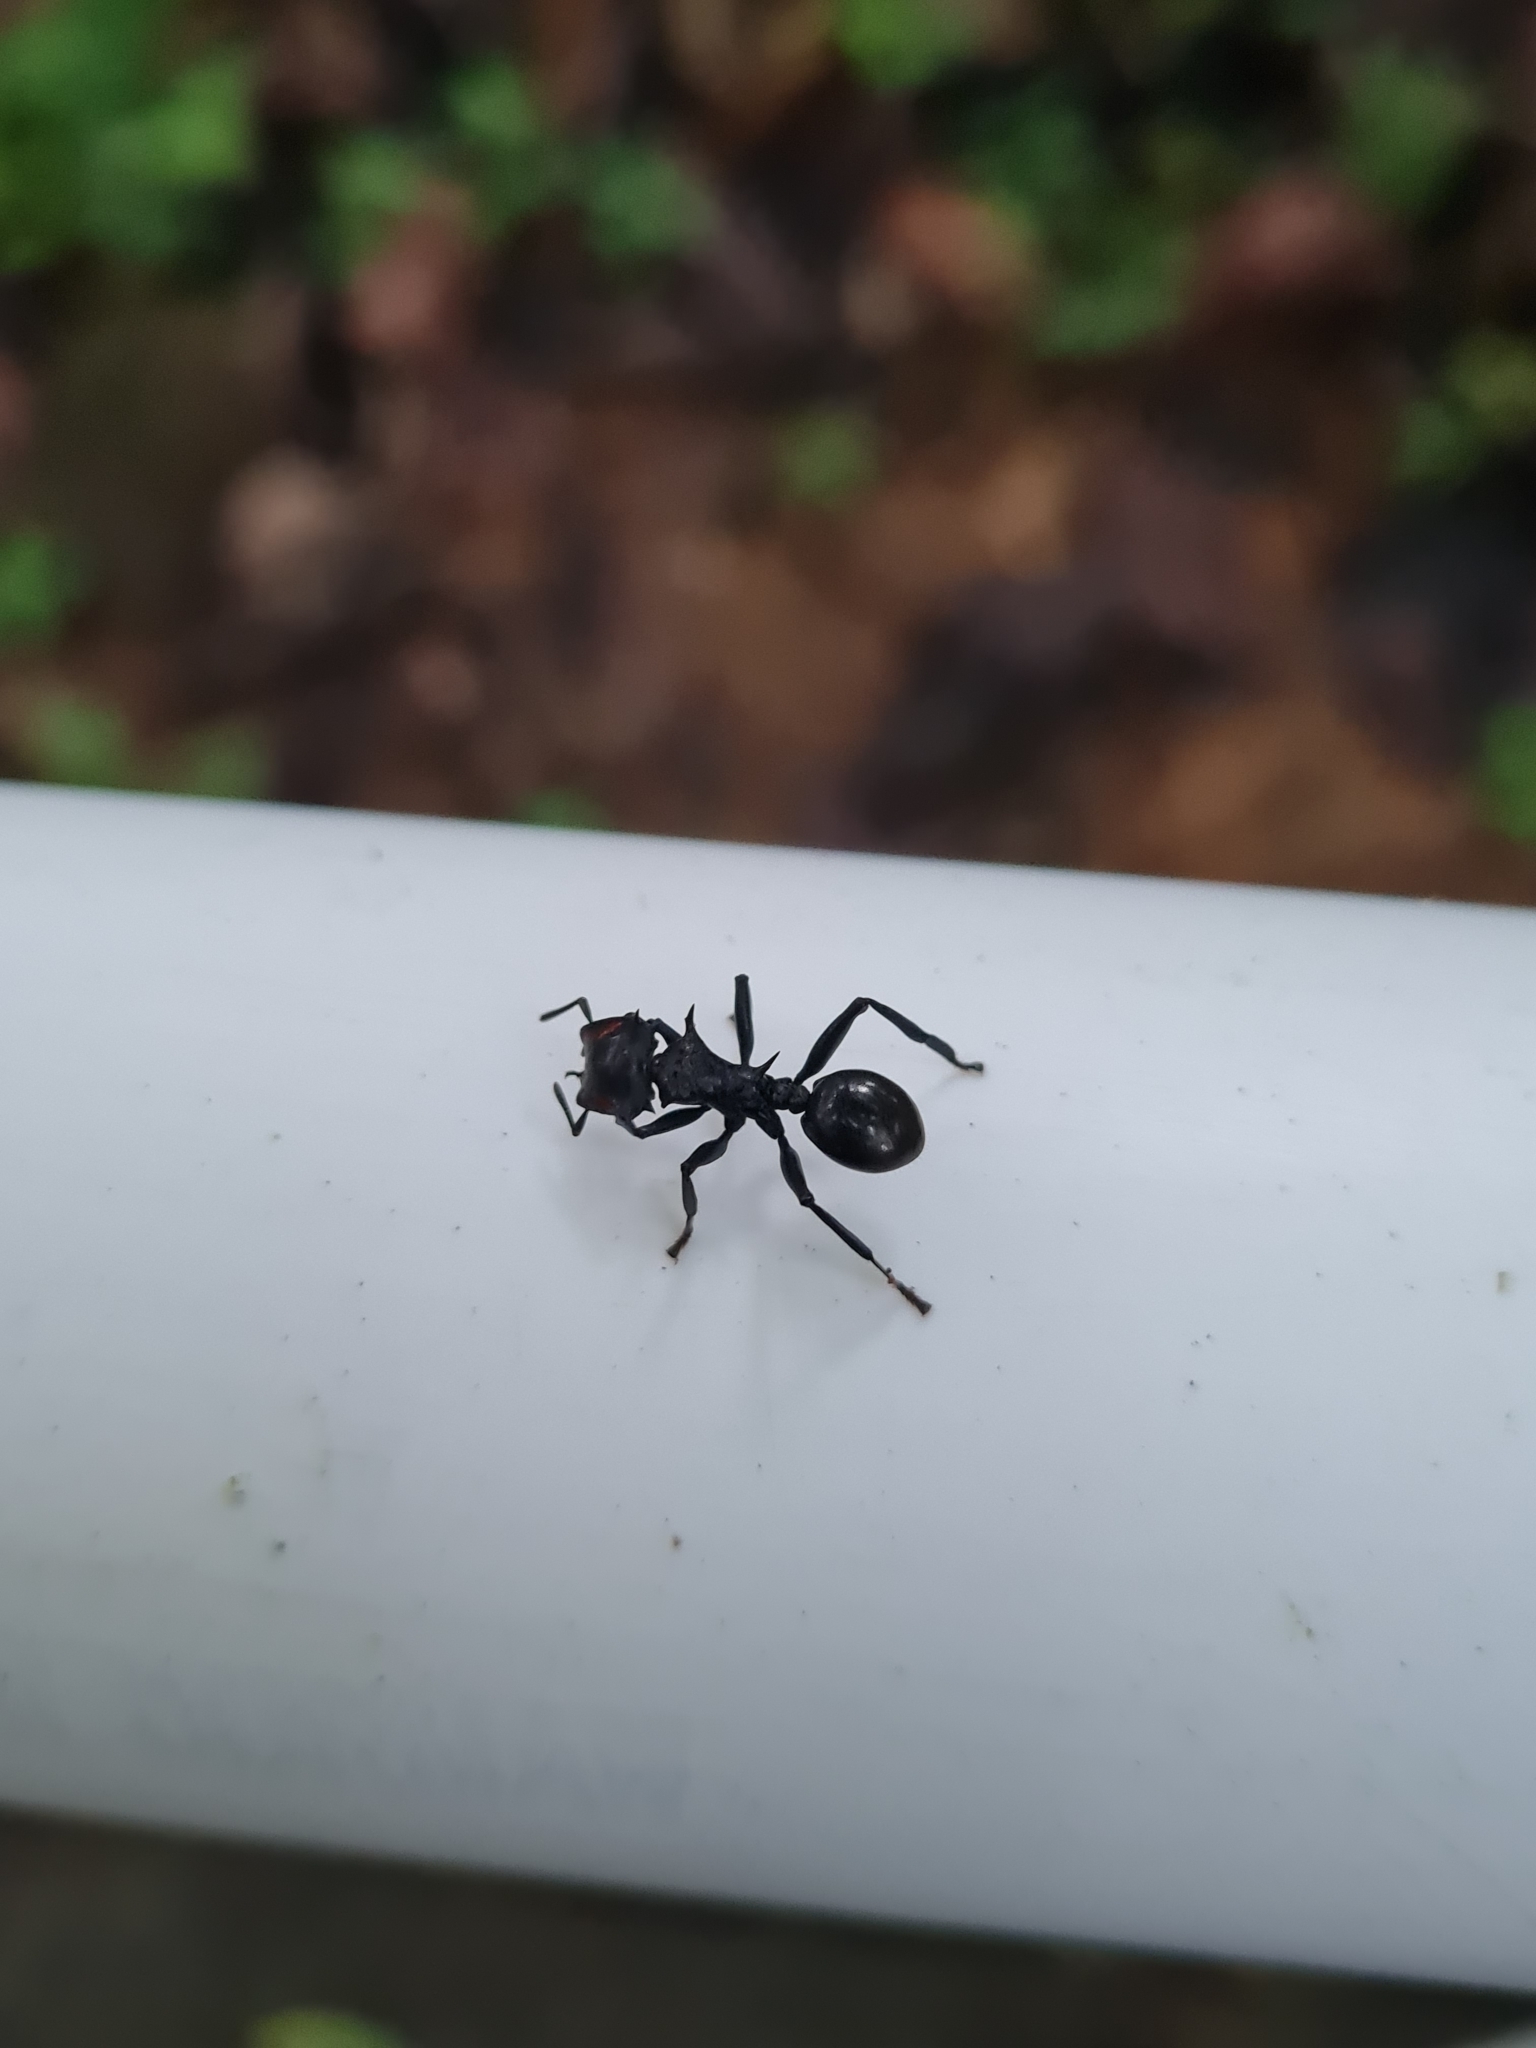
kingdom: Animalia
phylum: Arthropoda
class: Insecta
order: Hymenoptera
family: Formicidae
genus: Cephalotes
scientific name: Cephalotes atratus
